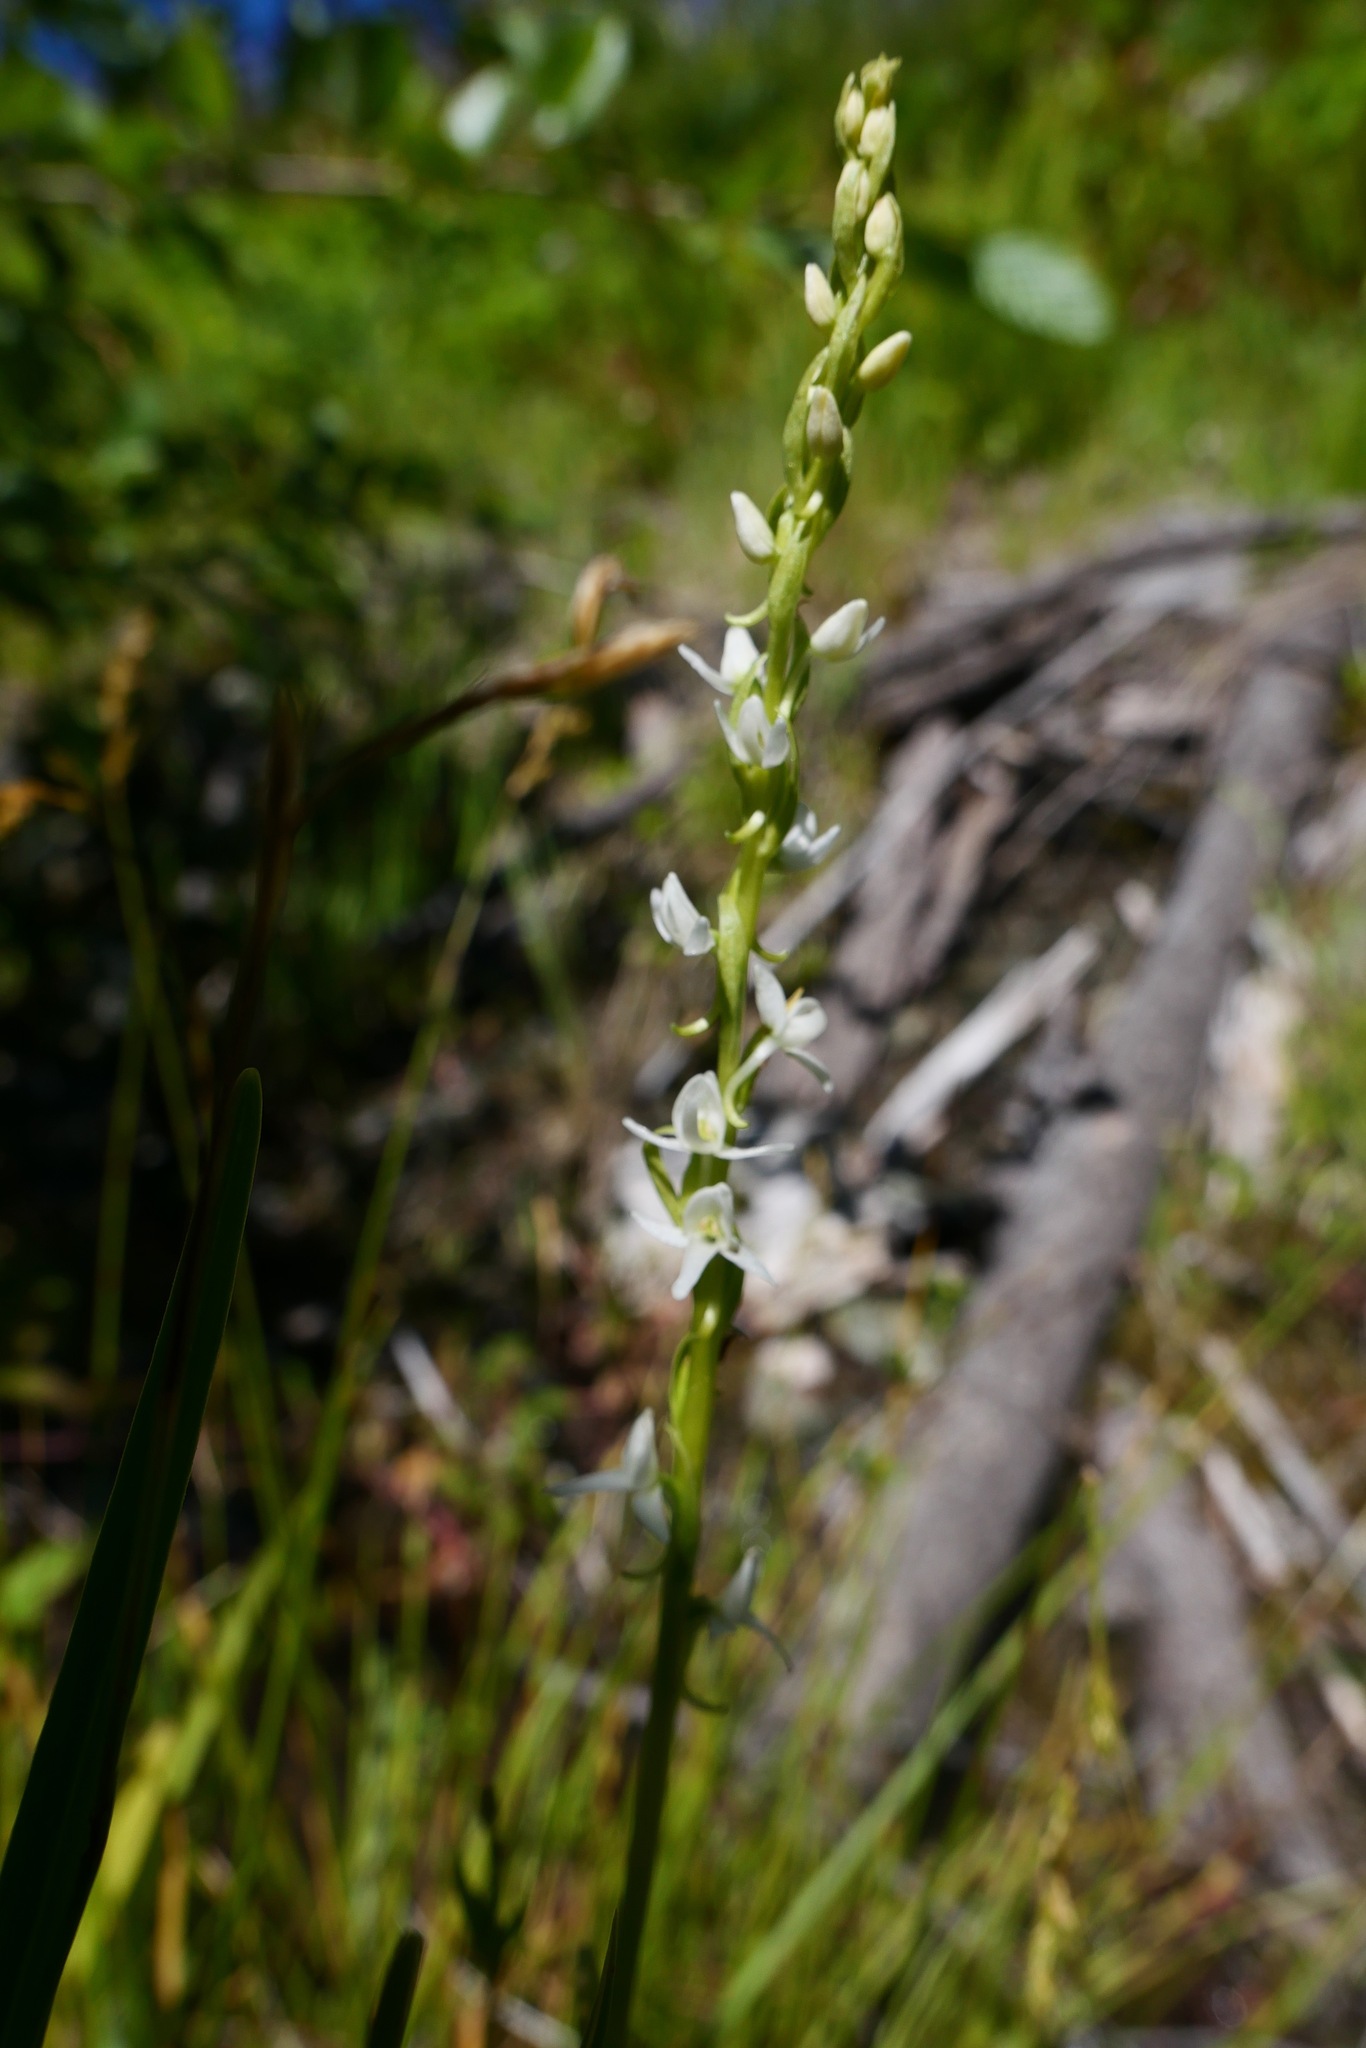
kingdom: Plantae
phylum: Tracheophyta
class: Liliopsida
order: Asparagales
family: Orchidaceae
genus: Platanthera
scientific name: Platanthera dilatata
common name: Bog candles
